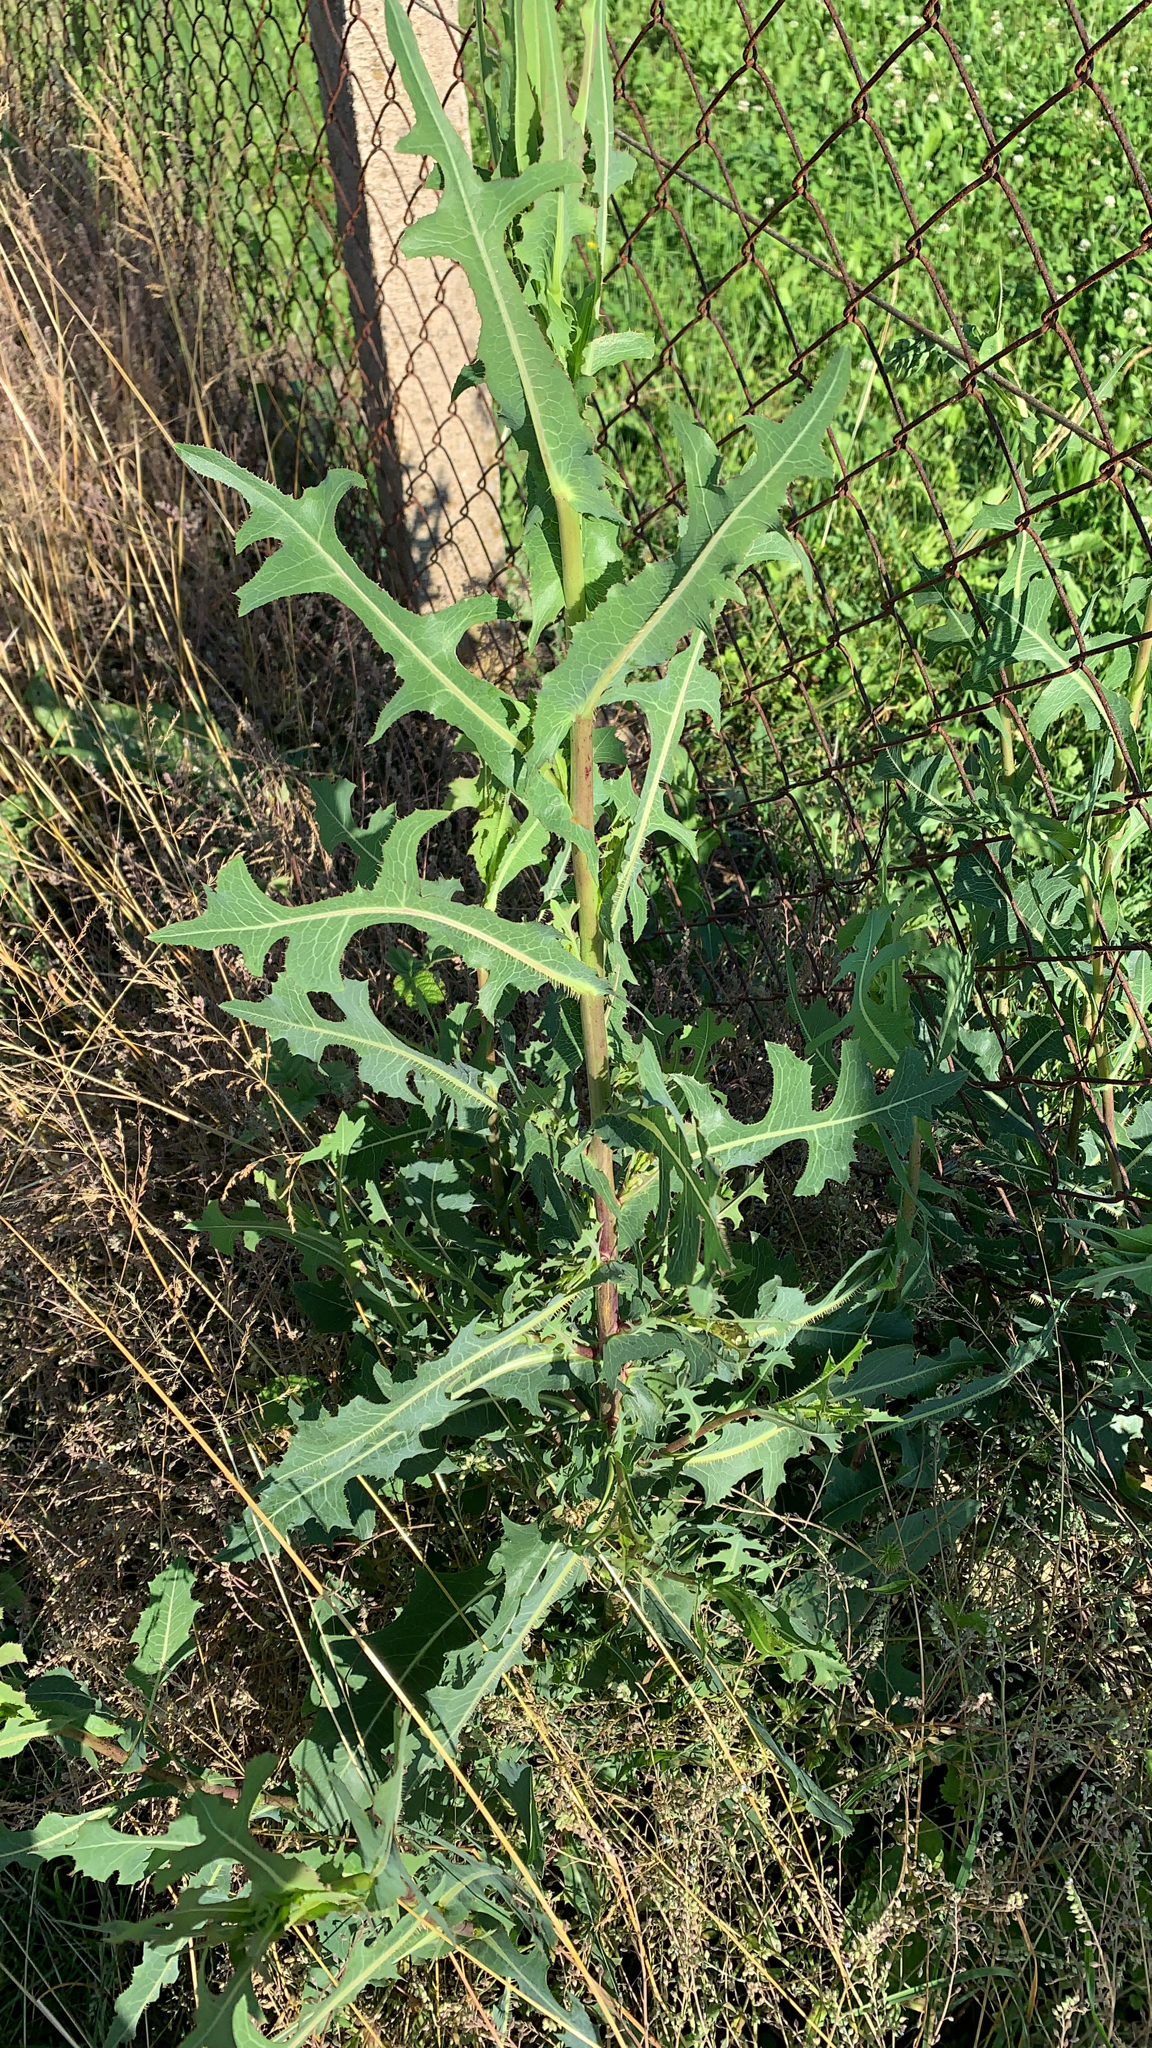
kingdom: Plantae
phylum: Tracheophyta
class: Magnoliopsida
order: Asterales
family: Asteraceae
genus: Lactuca
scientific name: Lactuca serriola
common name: Prickly lettuce
